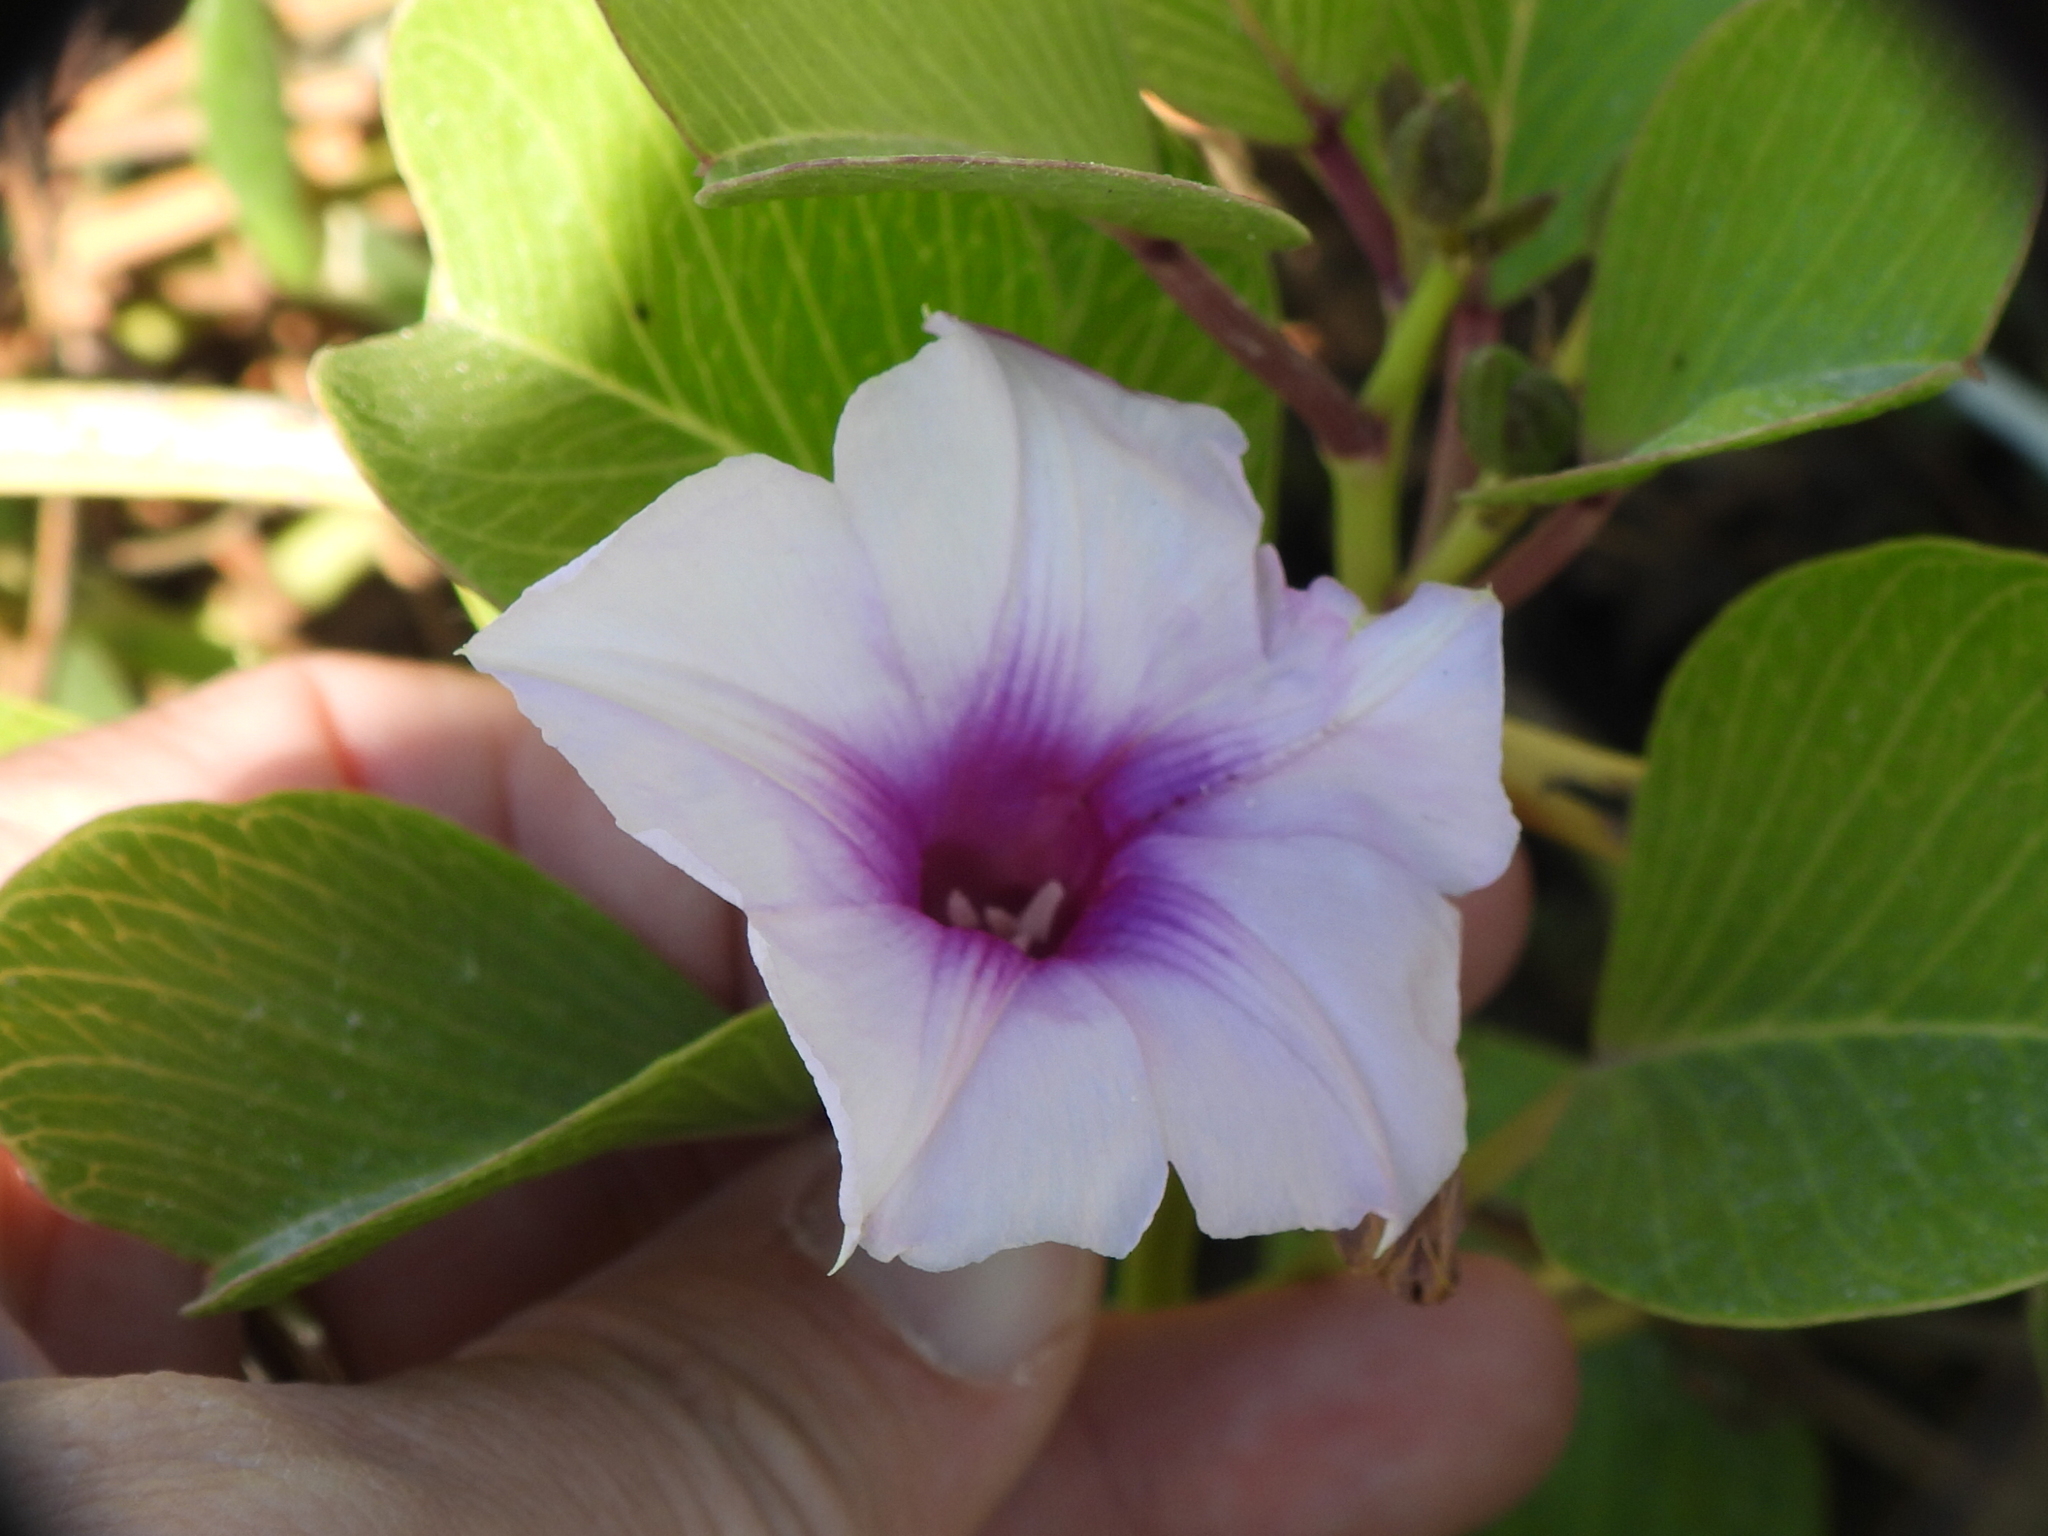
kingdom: Plantae
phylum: Tracheophyta
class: Magnoliopsida
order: Solanales
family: Convolvulaceae
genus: Ipomoea
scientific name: Ipomoea pes-caprae
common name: Beach morning glory
